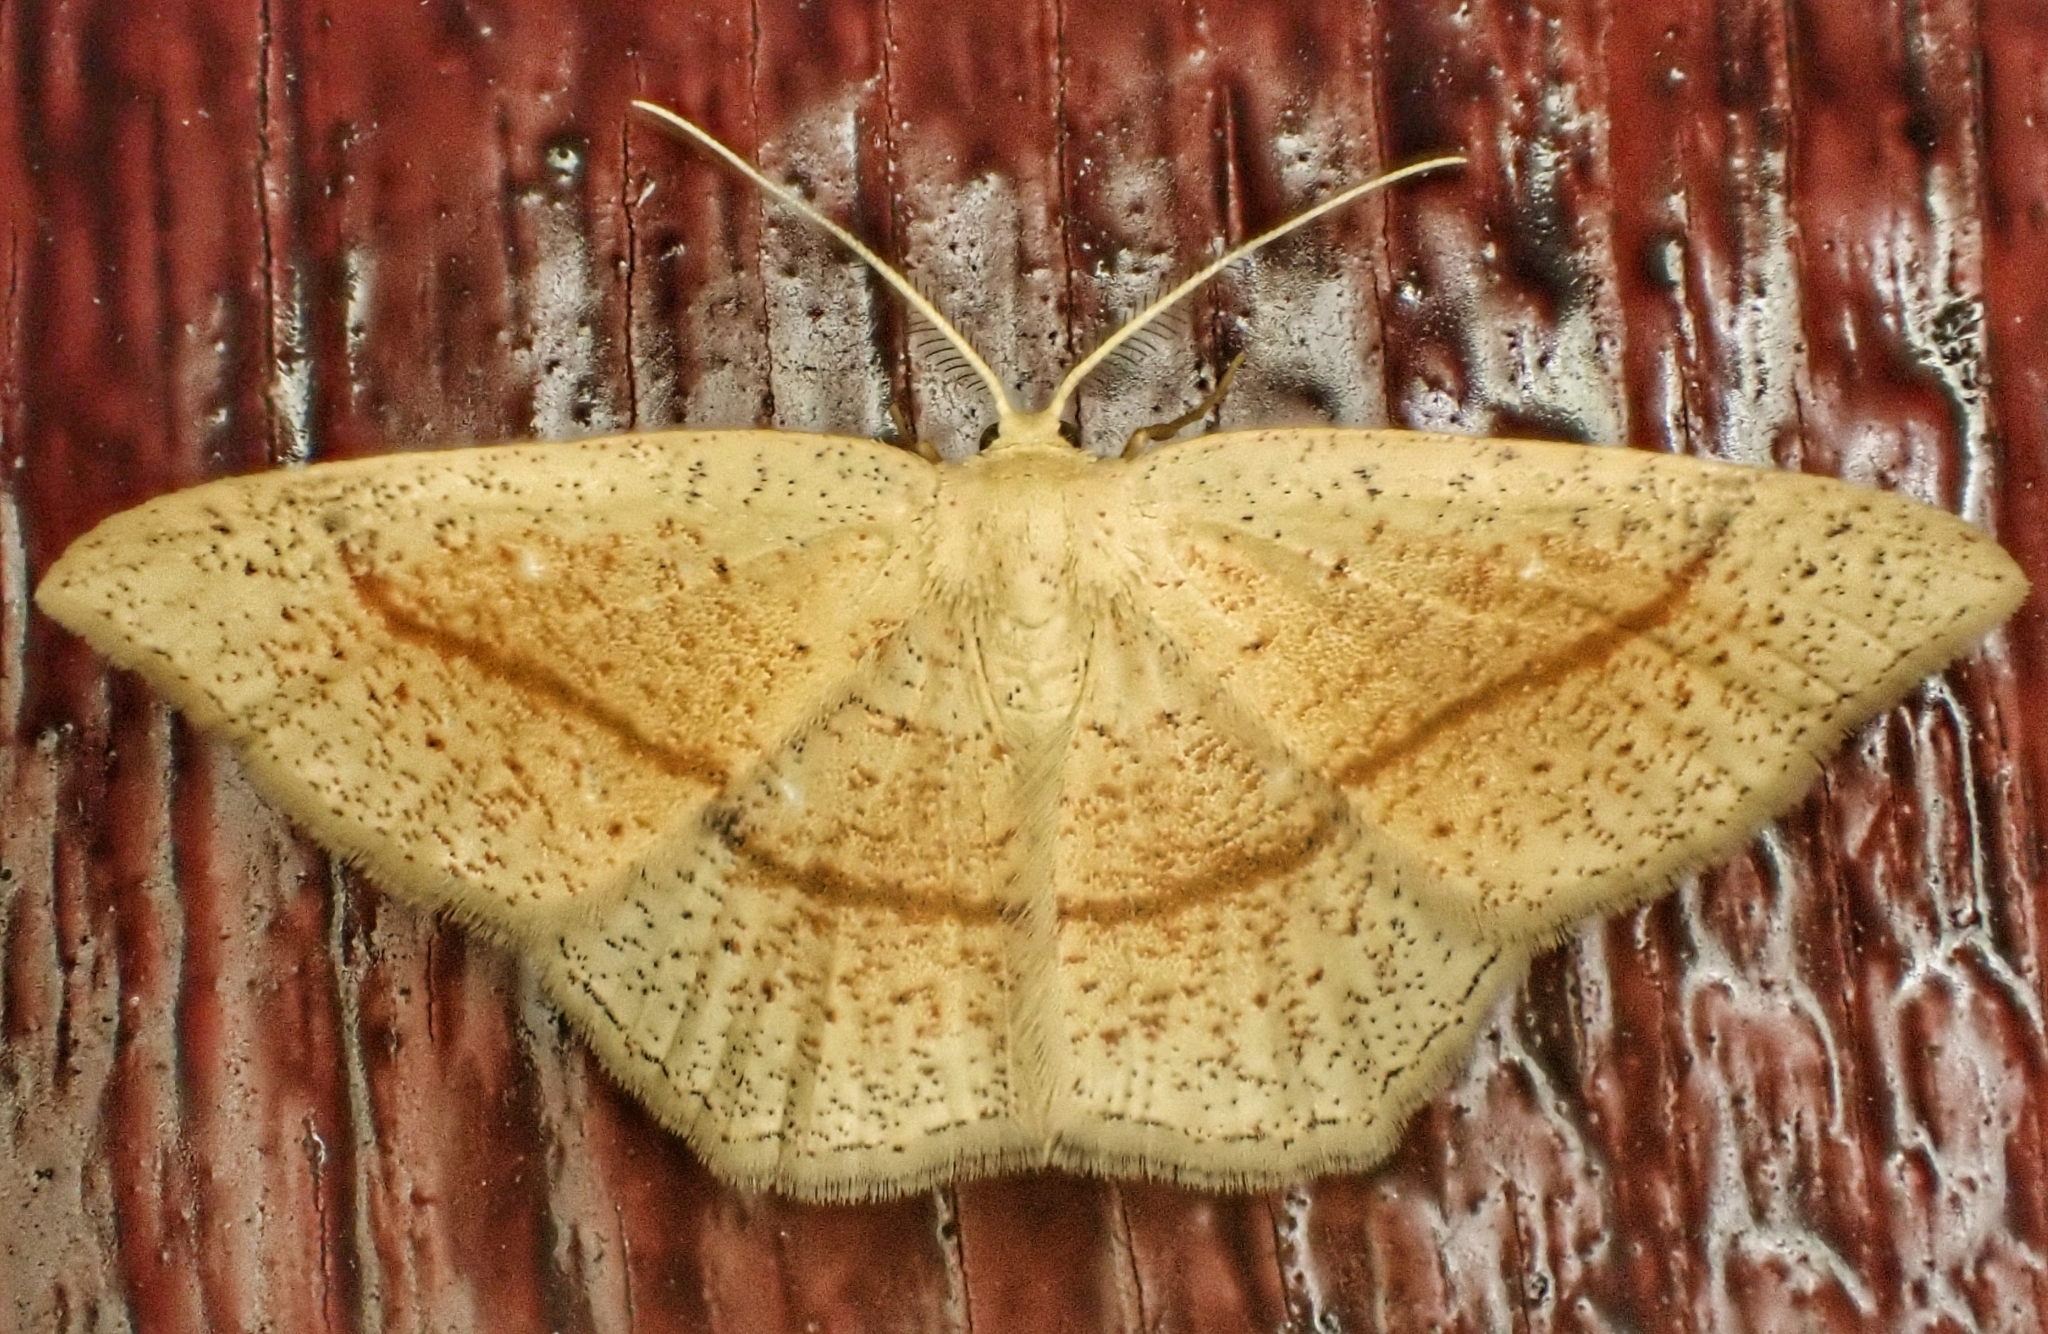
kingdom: Animalia
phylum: Arthropoda
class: Insecta
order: Lepidoptera
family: Geometridae
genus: Cyclophora
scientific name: Cyclophora punctaria
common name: Maiden's blush
